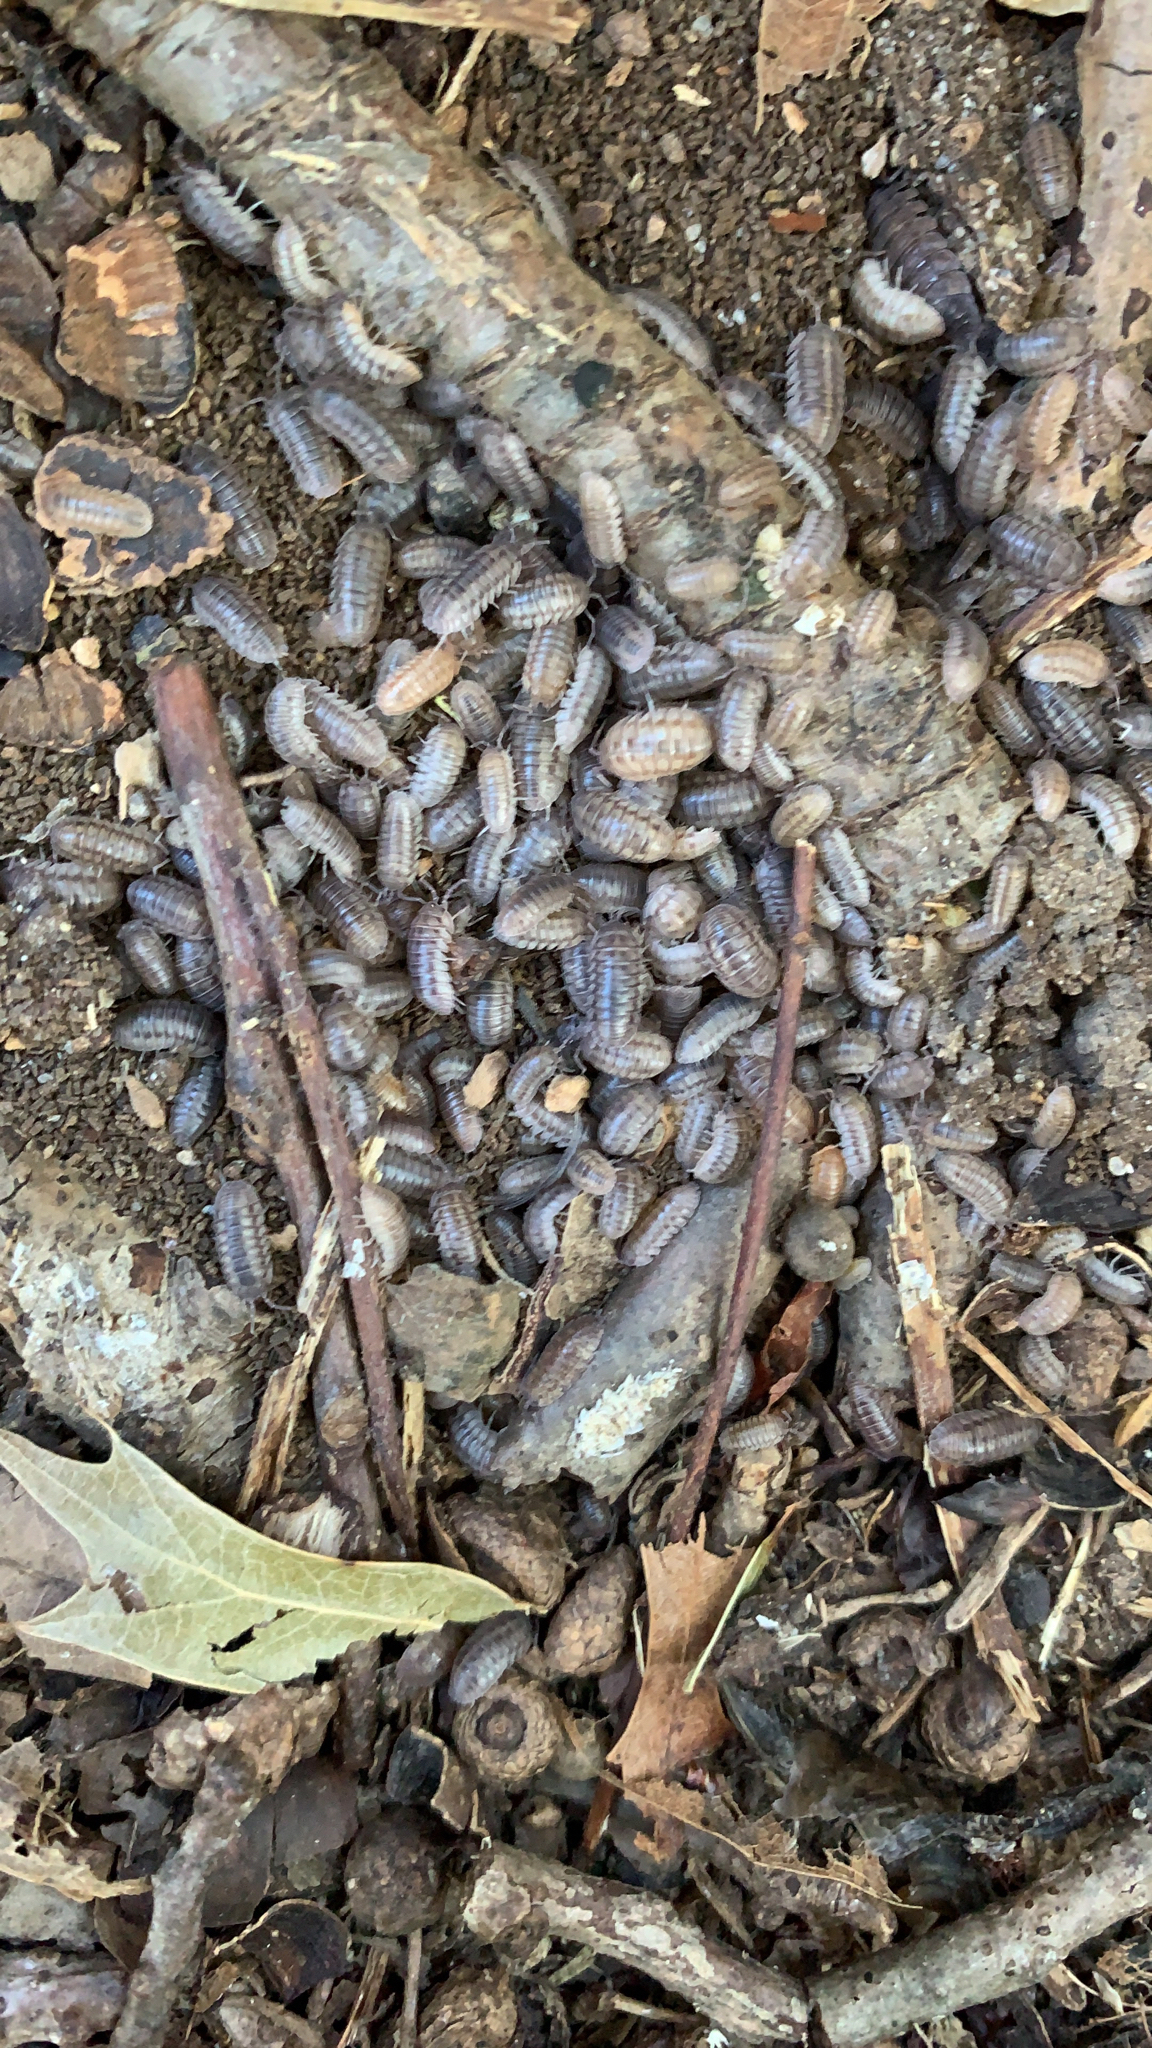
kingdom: Animalia
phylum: Arthropoda
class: Malacostraca
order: Isopoda
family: Armadillidiidae
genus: Armadillidium
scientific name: Armadillidium nasatum
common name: Isopod
